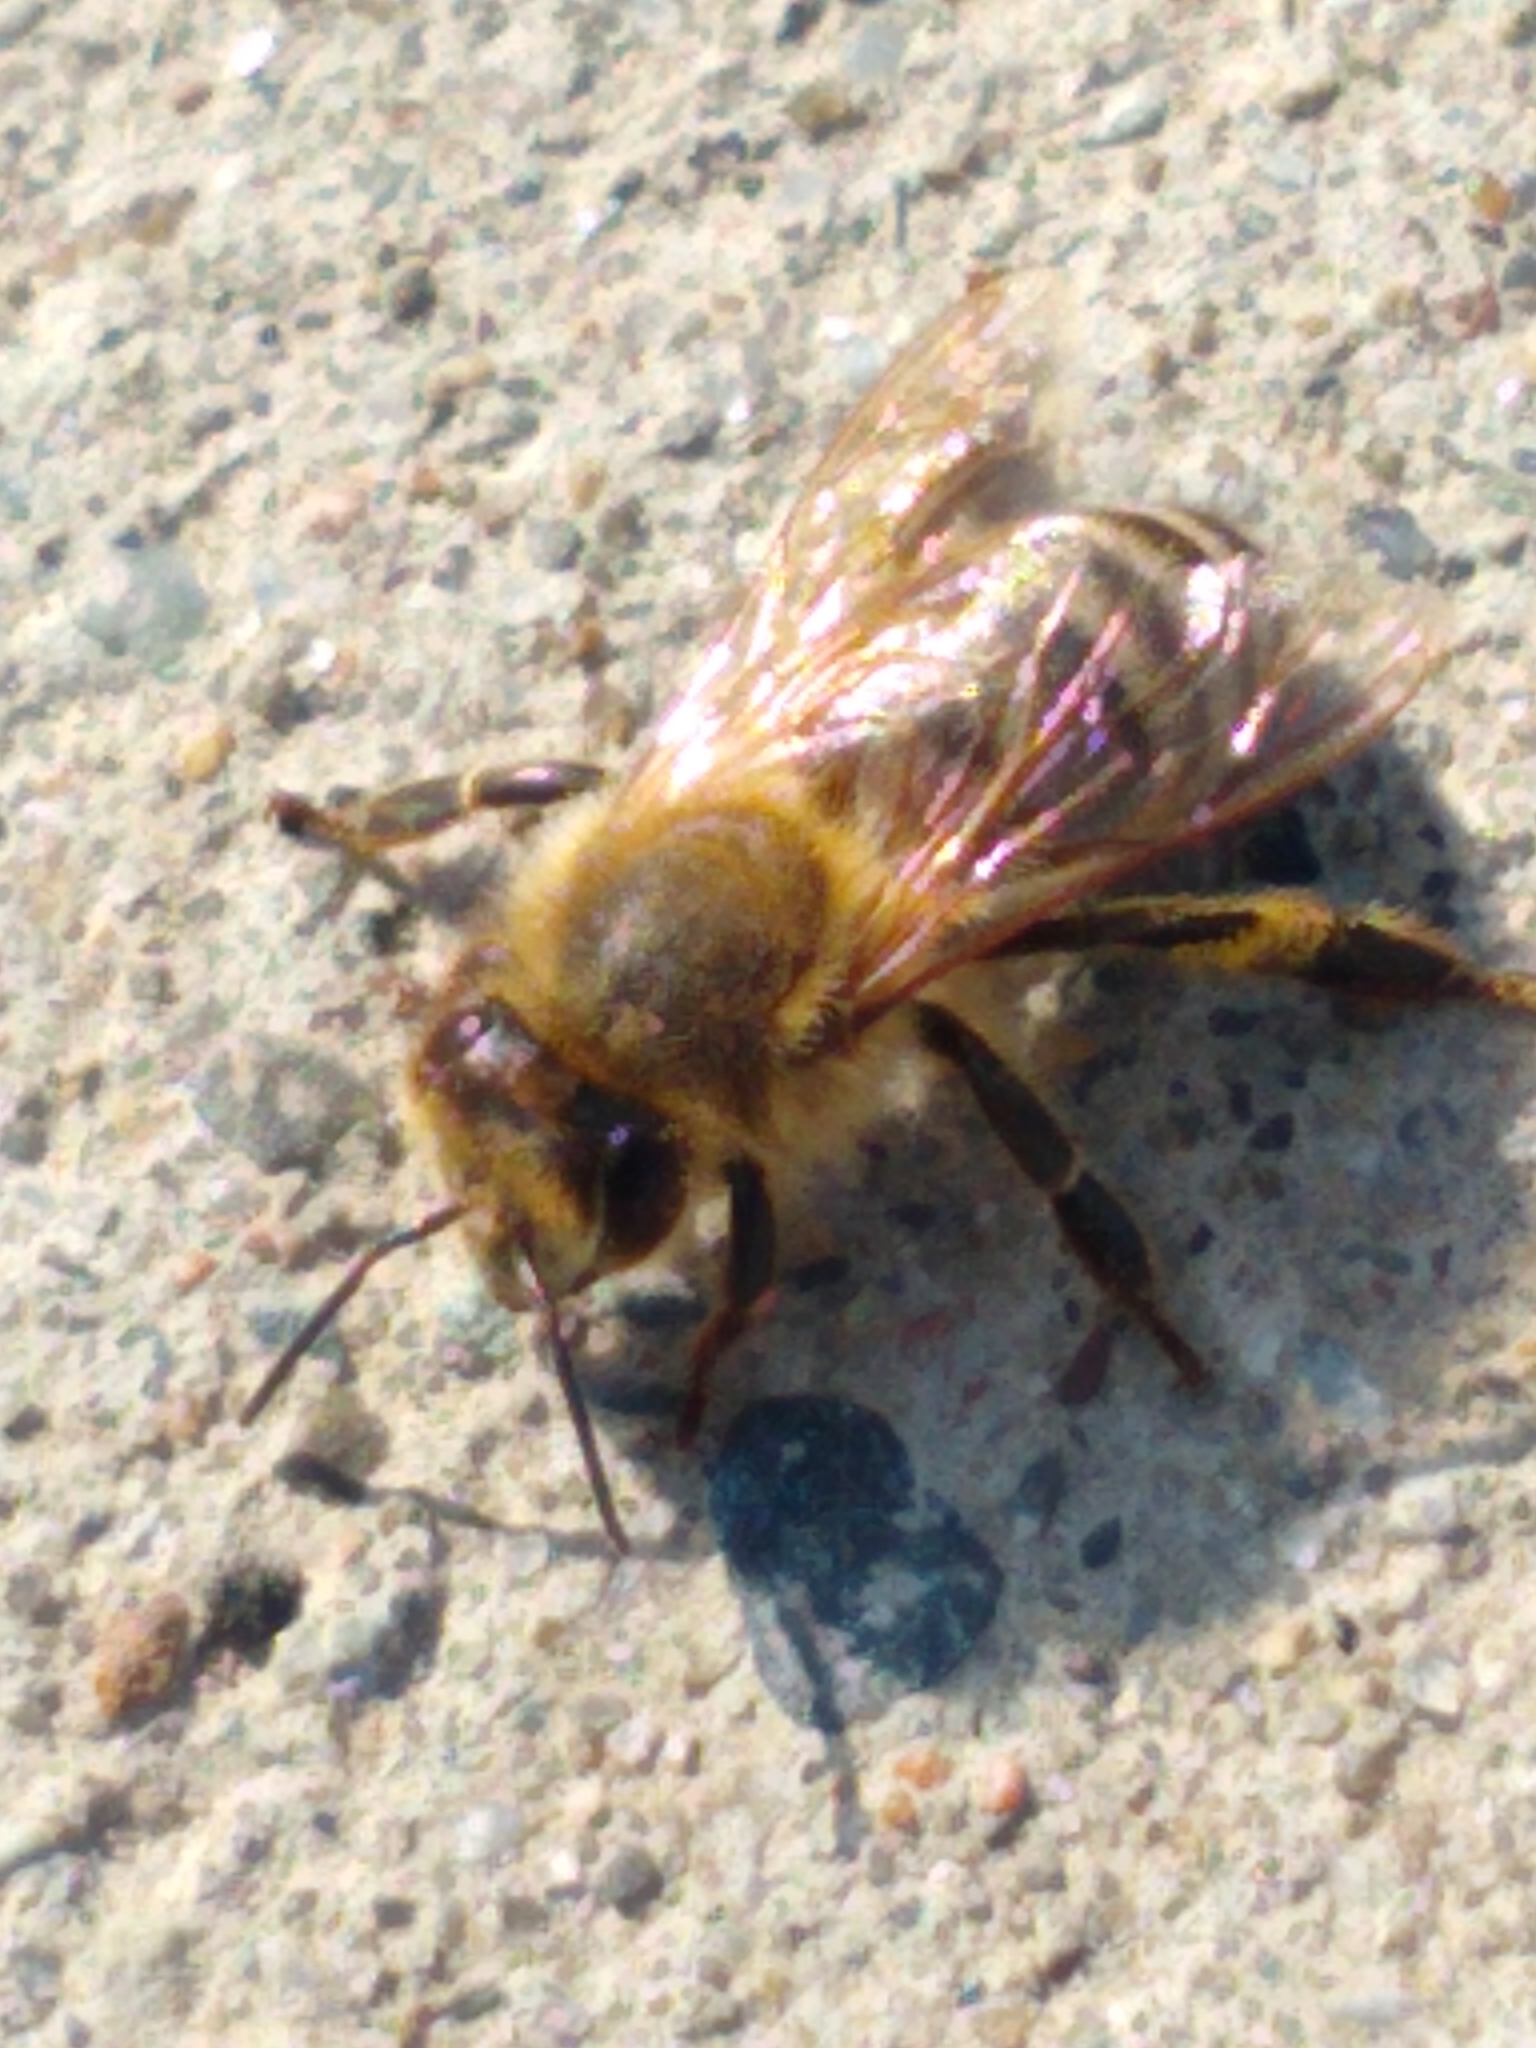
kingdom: Animalia
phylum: Arthropoda
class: Insecta
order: Hymenoptera
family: Apidae
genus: Apis
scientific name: Apis mellifera
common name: Honey bee
